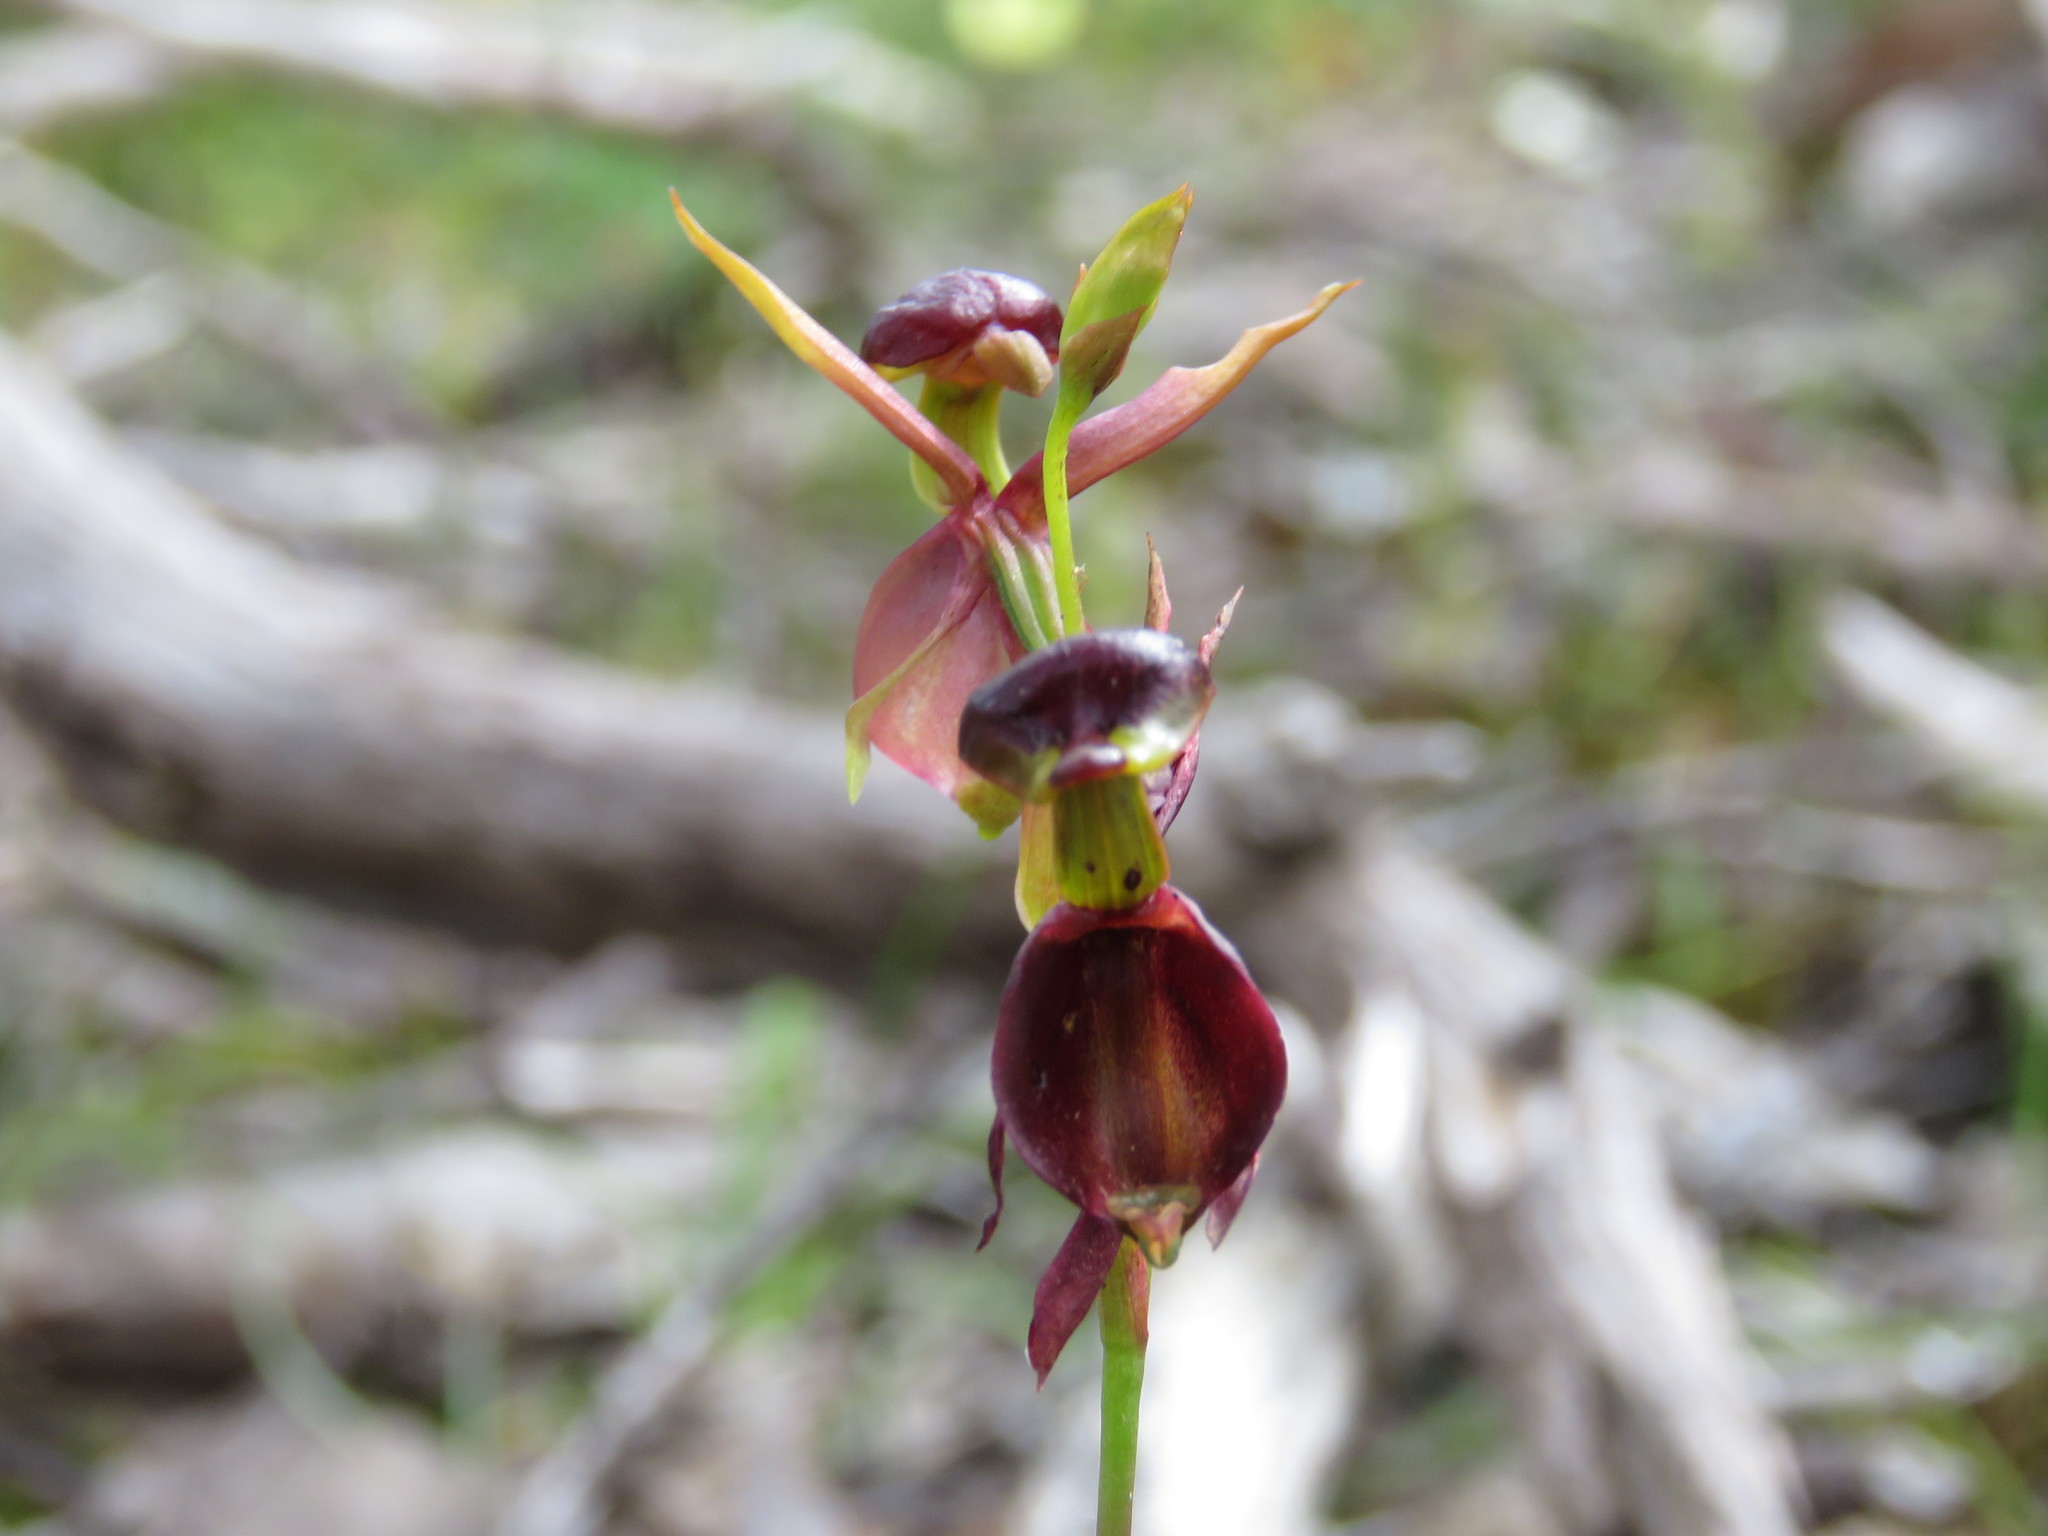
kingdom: Plantae
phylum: Tracheophyta
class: Liliopsida
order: Asparagales
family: Orchidaceae
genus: Caleana
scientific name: Caleana major
